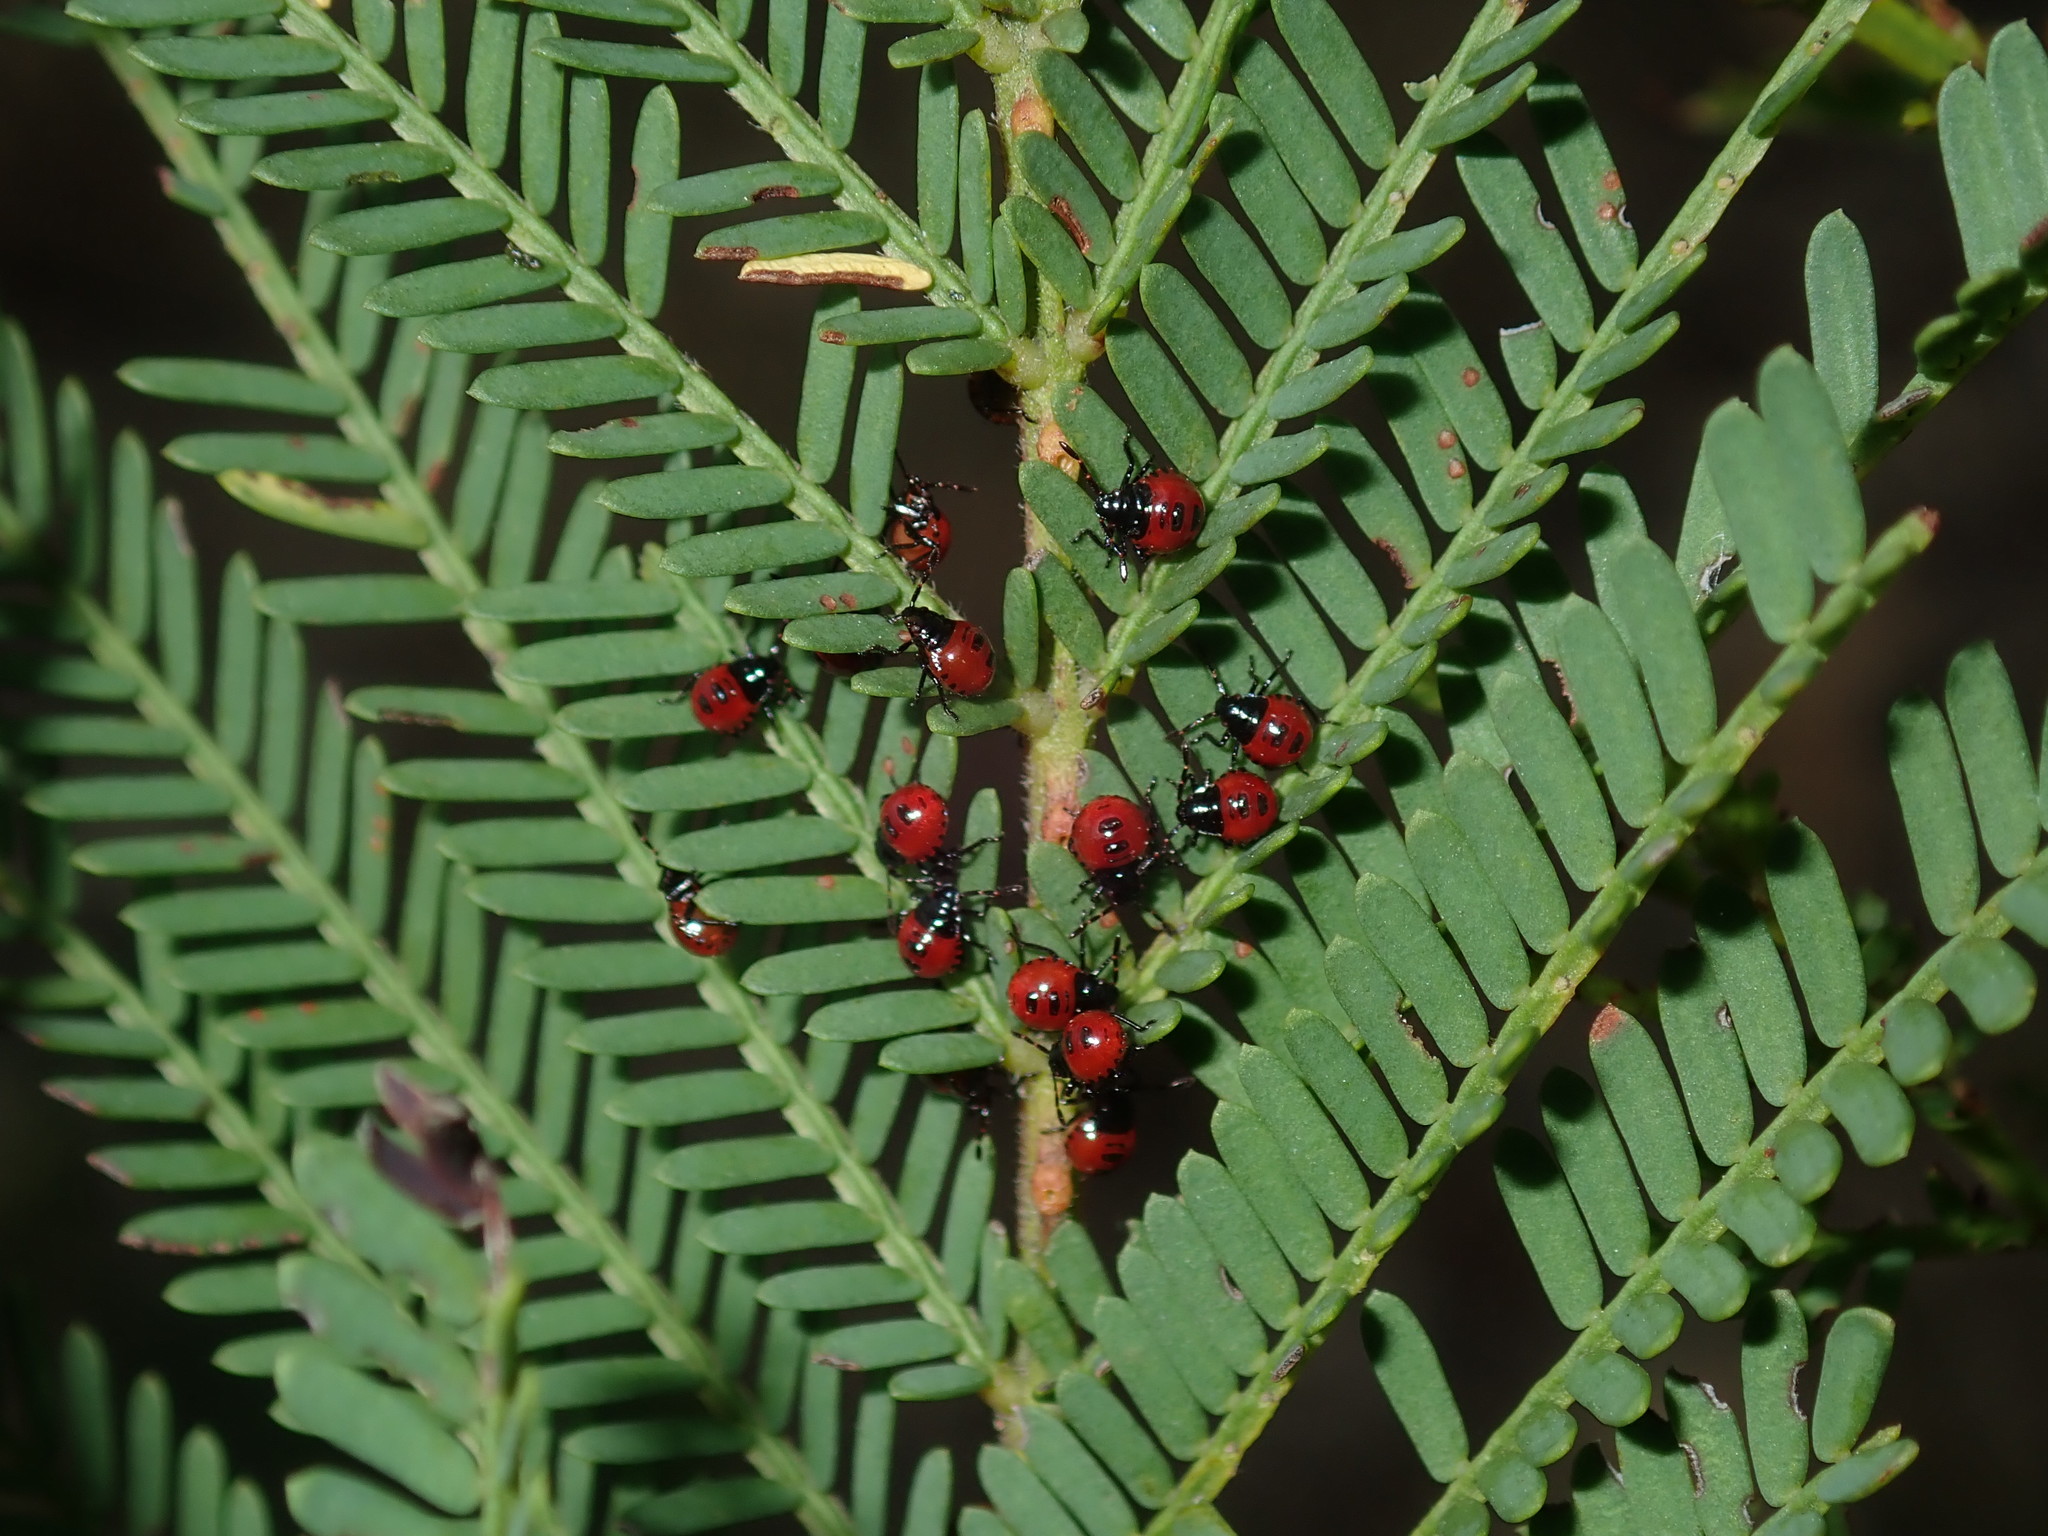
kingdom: Animalia
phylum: Arthropoda
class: Insecta
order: Hemiptera
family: Scutelleridae
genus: Choerocoris
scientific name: Choerocoris paganus
